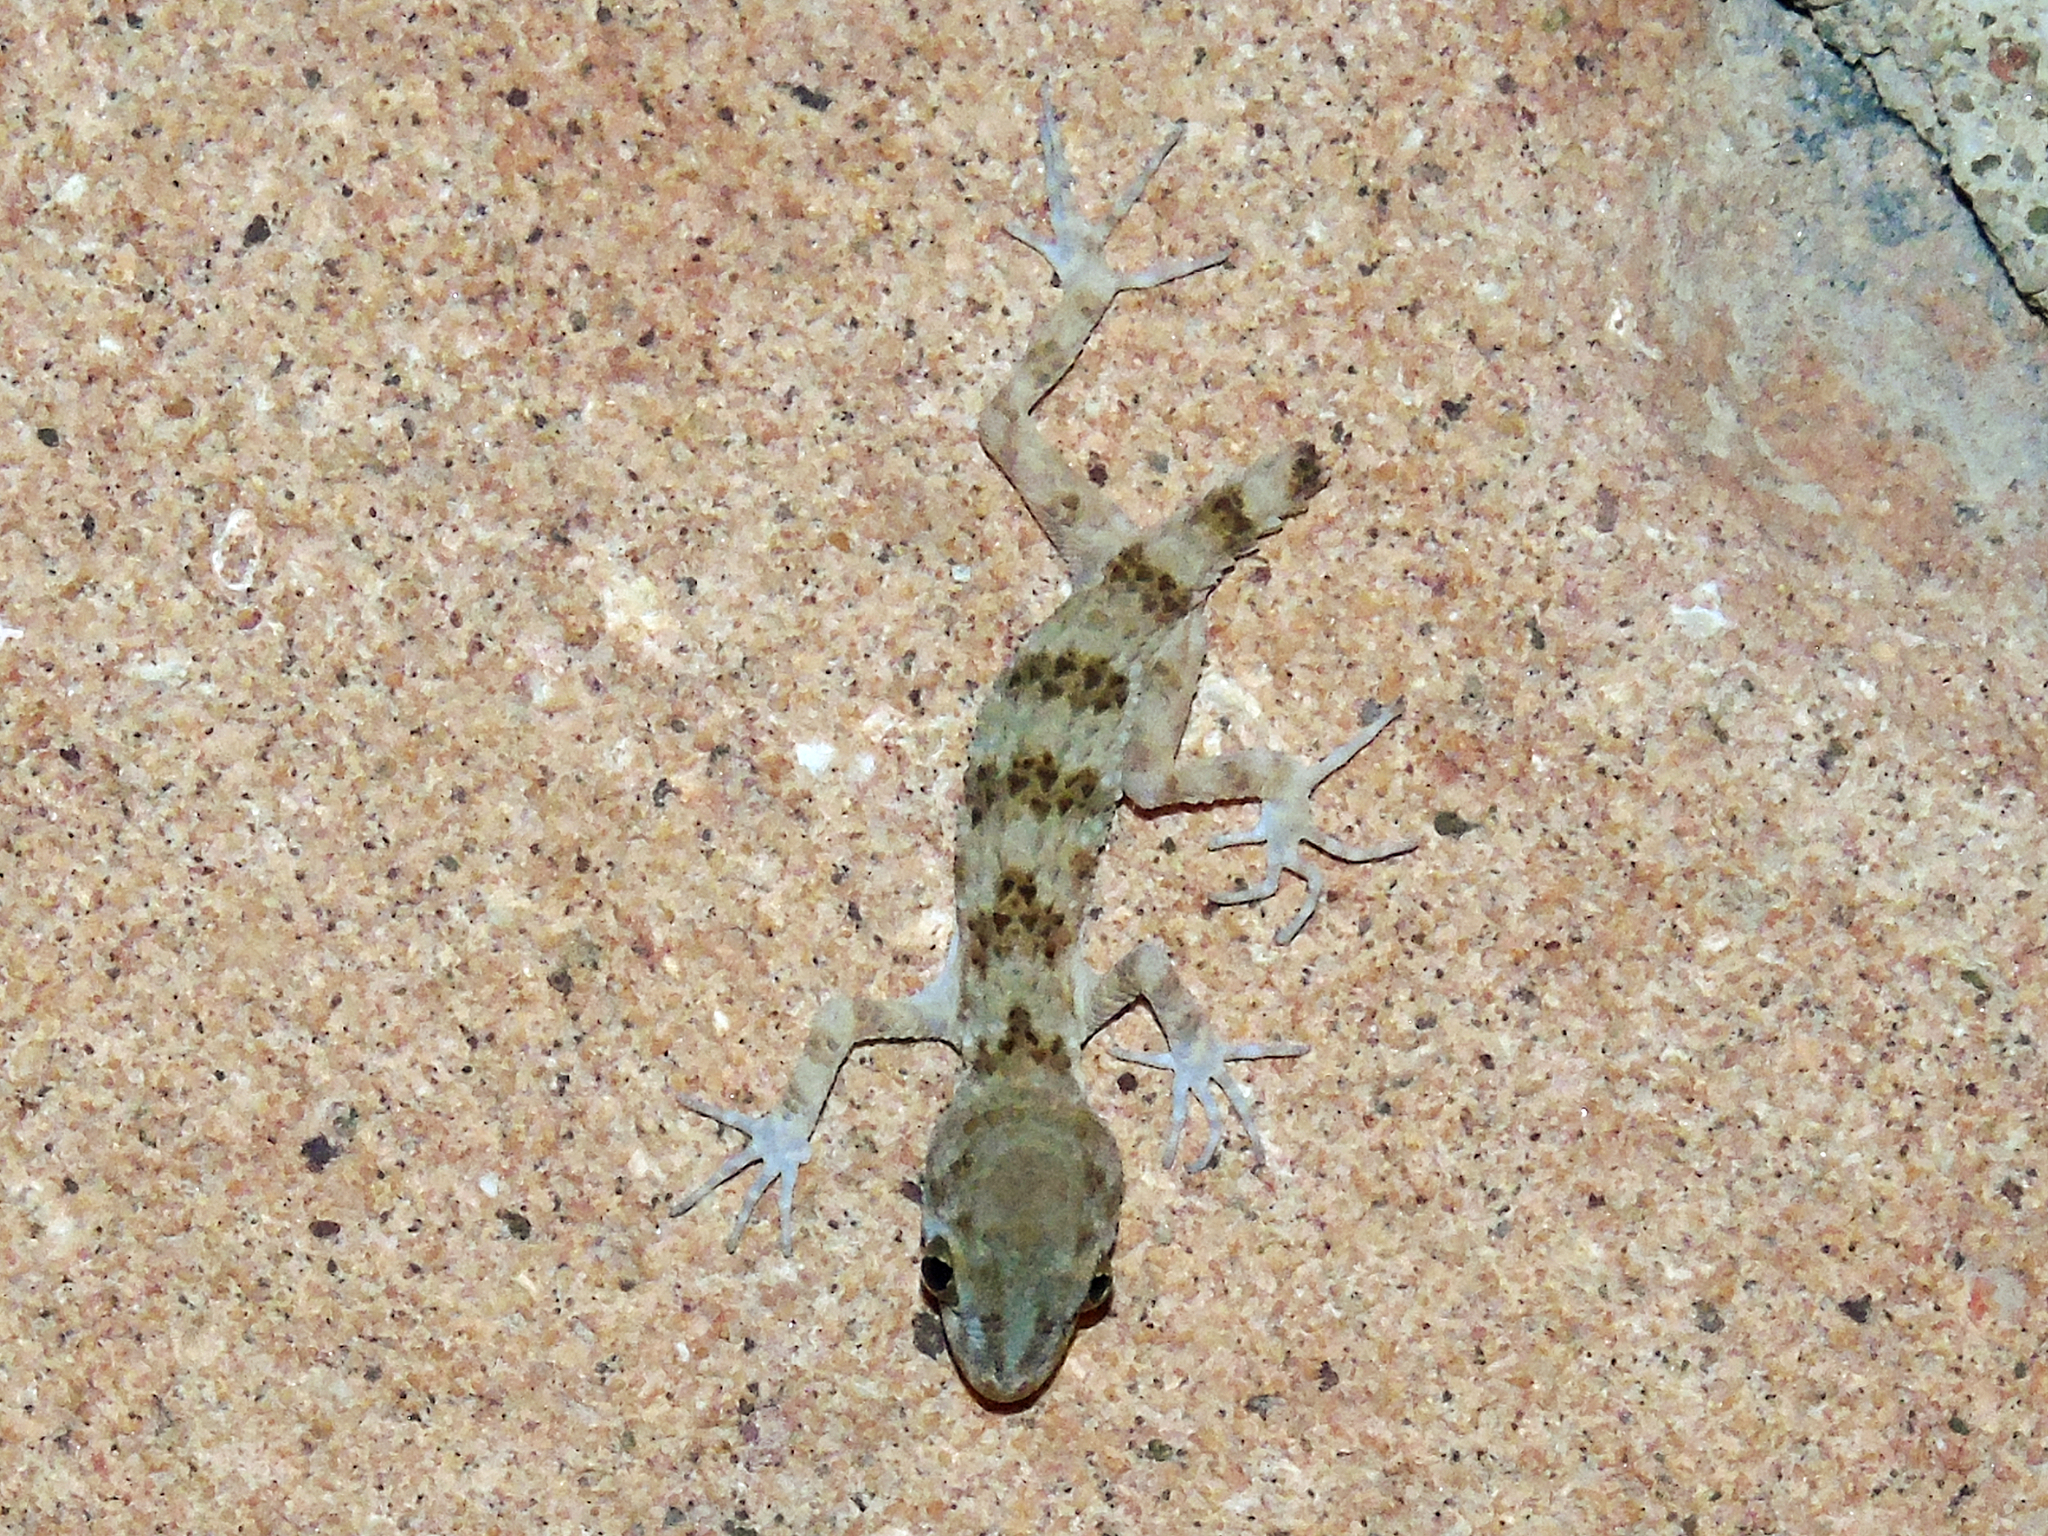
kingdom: Animalia
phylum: Chordata
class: Squamata
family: Gekkonidae
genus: Tenuidactylus
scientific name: Tenuidactylus caspius
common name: Caspian bent-toed gecko
